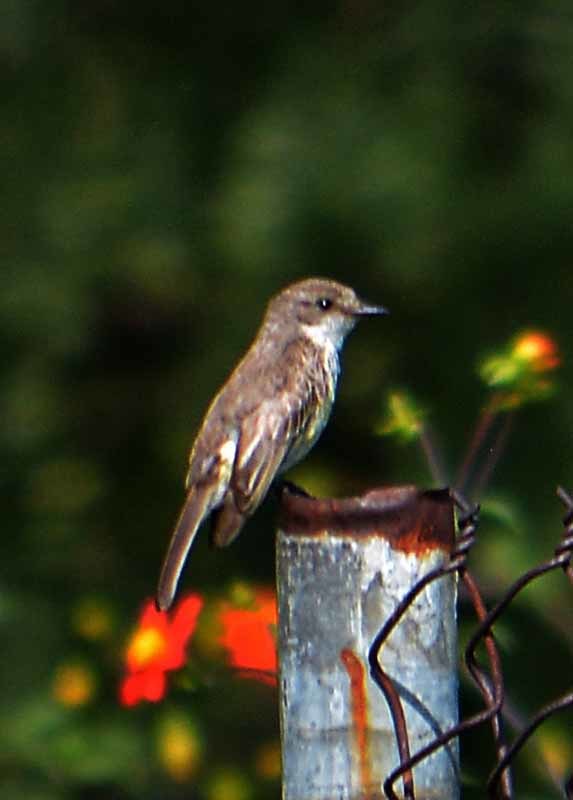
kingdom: Animalia
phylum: Chordata
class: Aves
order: Passeriformes
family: Tyrannidae
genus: Pyrocephalus
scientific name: Pyrocephalus rubinus
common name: Vermilion flycatcher
